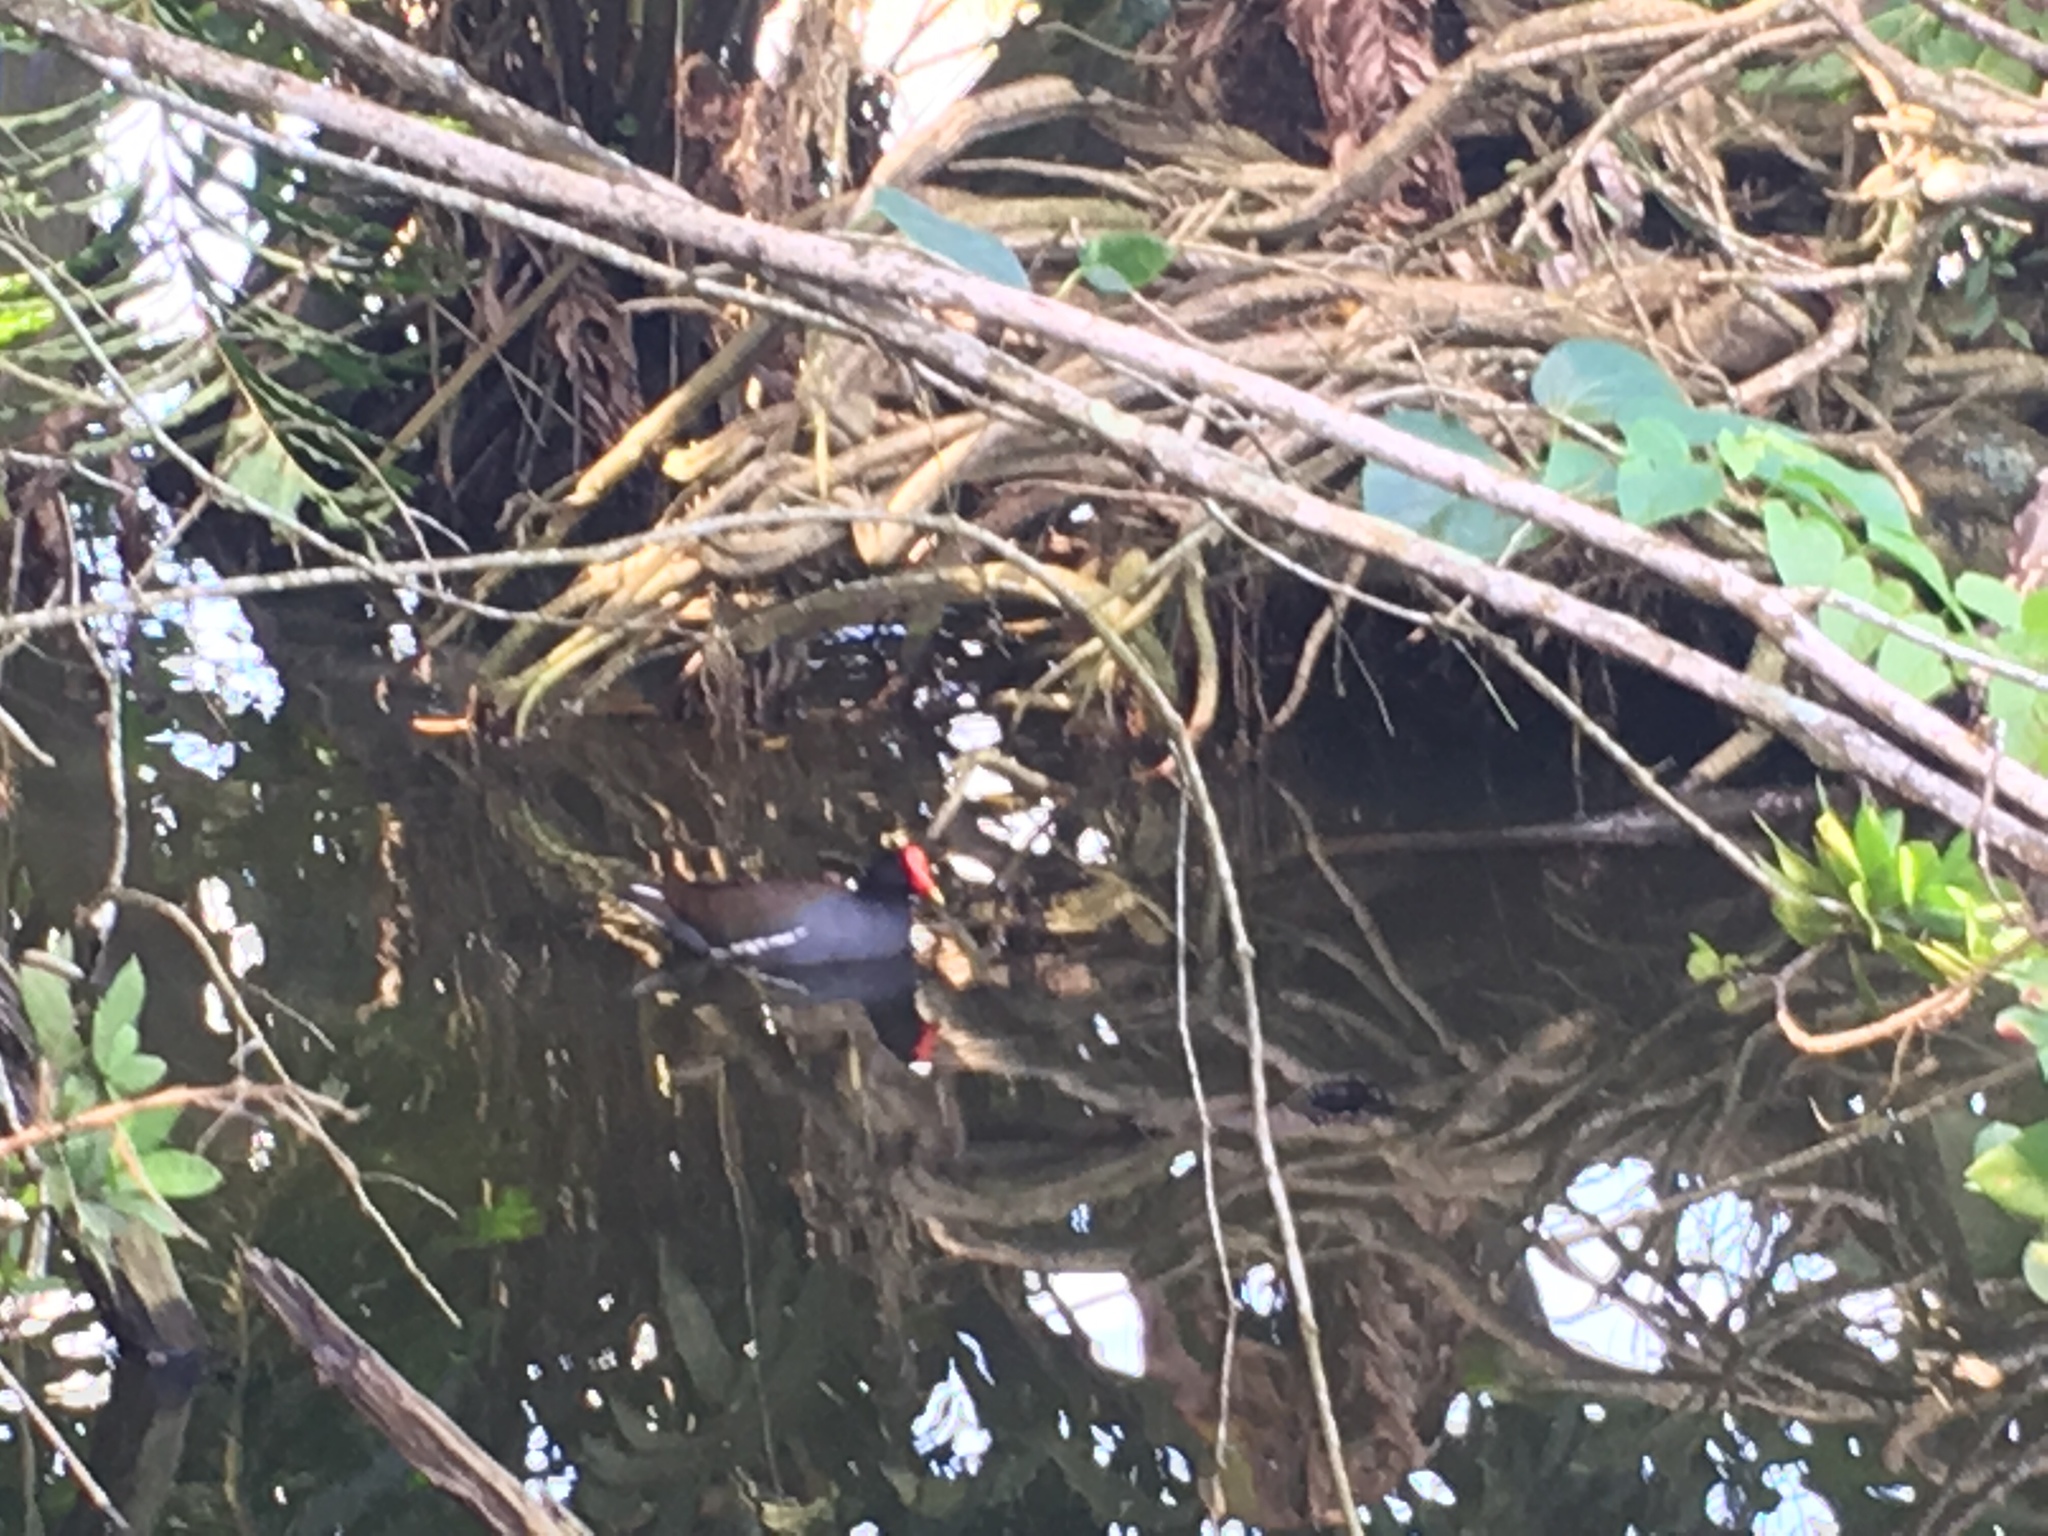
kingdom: Animalia
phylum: Chordata
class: Aves
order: Gruiformes
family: Rallidae
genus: Gallinula
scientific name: Gallinula chloropus
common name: Common moorhen
